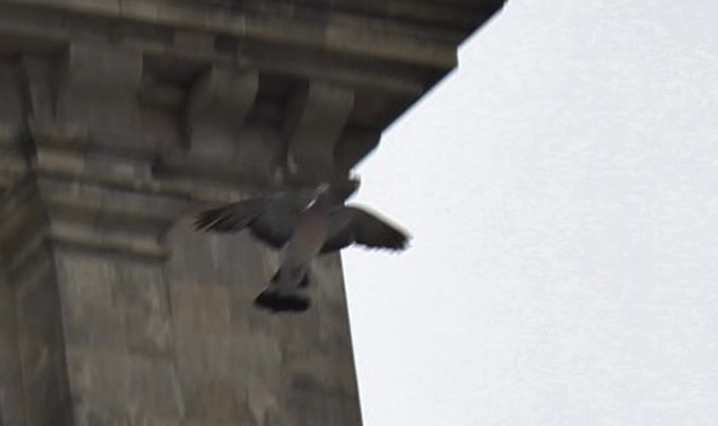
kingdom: Animalia
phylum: Chordata
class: Aves
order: Columbiformes
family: Columbidae
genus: Columba
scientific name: Columba palumbus
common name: Common wood pigeon
